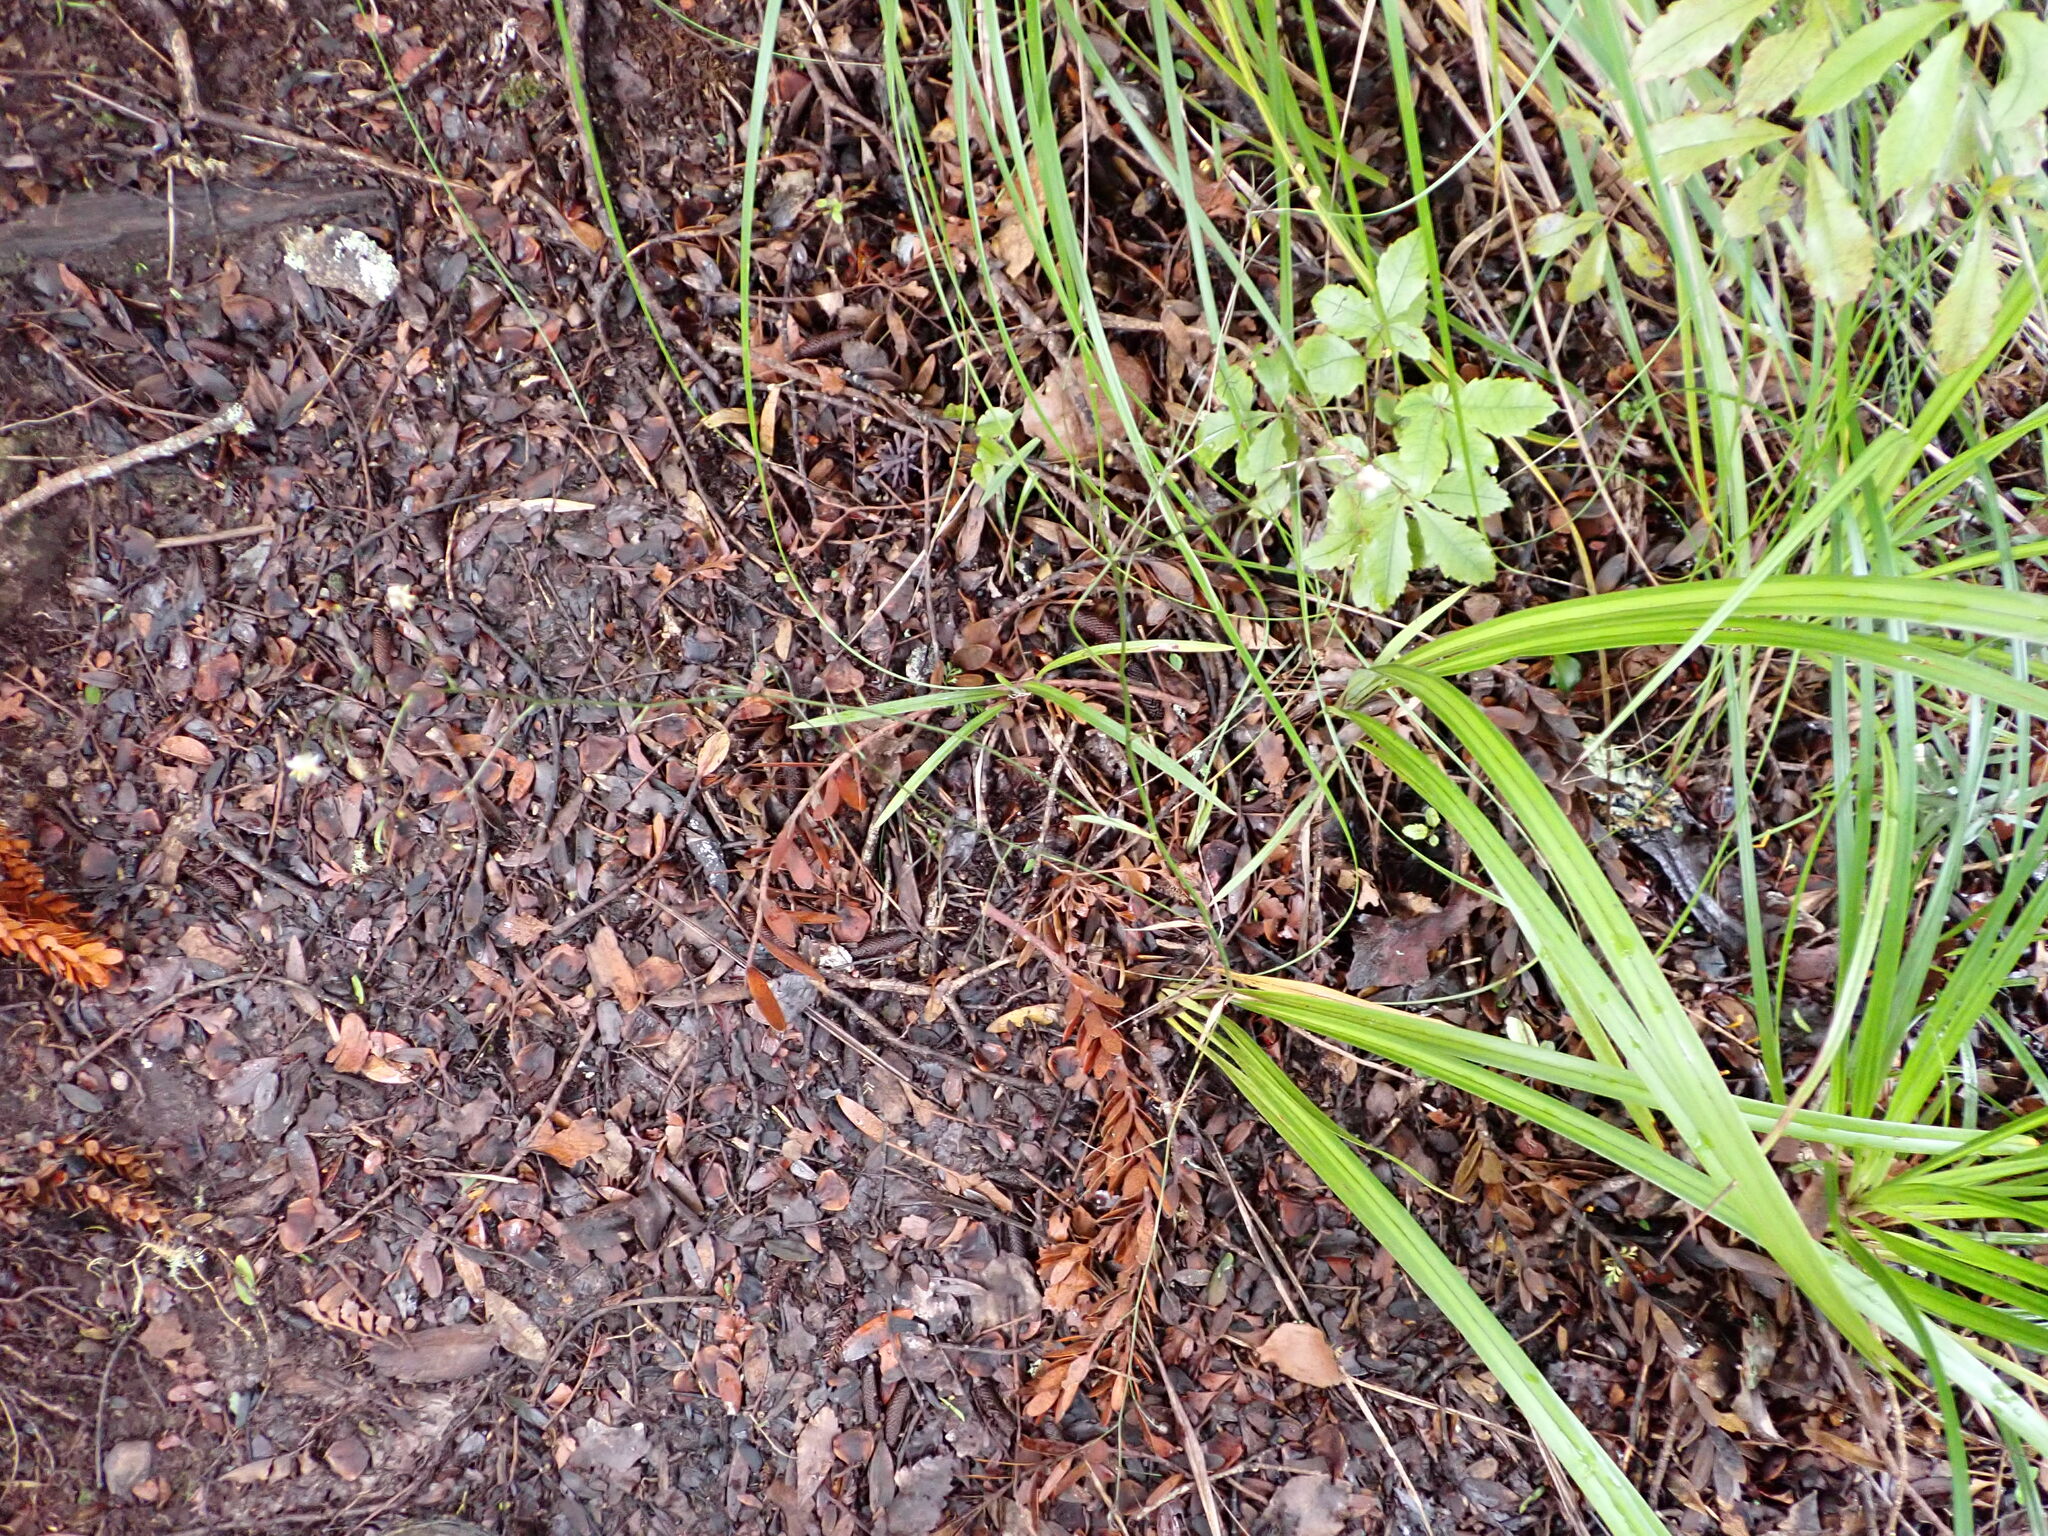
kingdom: Plantae
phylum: Tracheophyta
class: Liliopsida
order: Asparagales
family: Asphodelaceae
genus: Dianella
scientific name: Dianella nigra
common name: New zealand-blueberry
